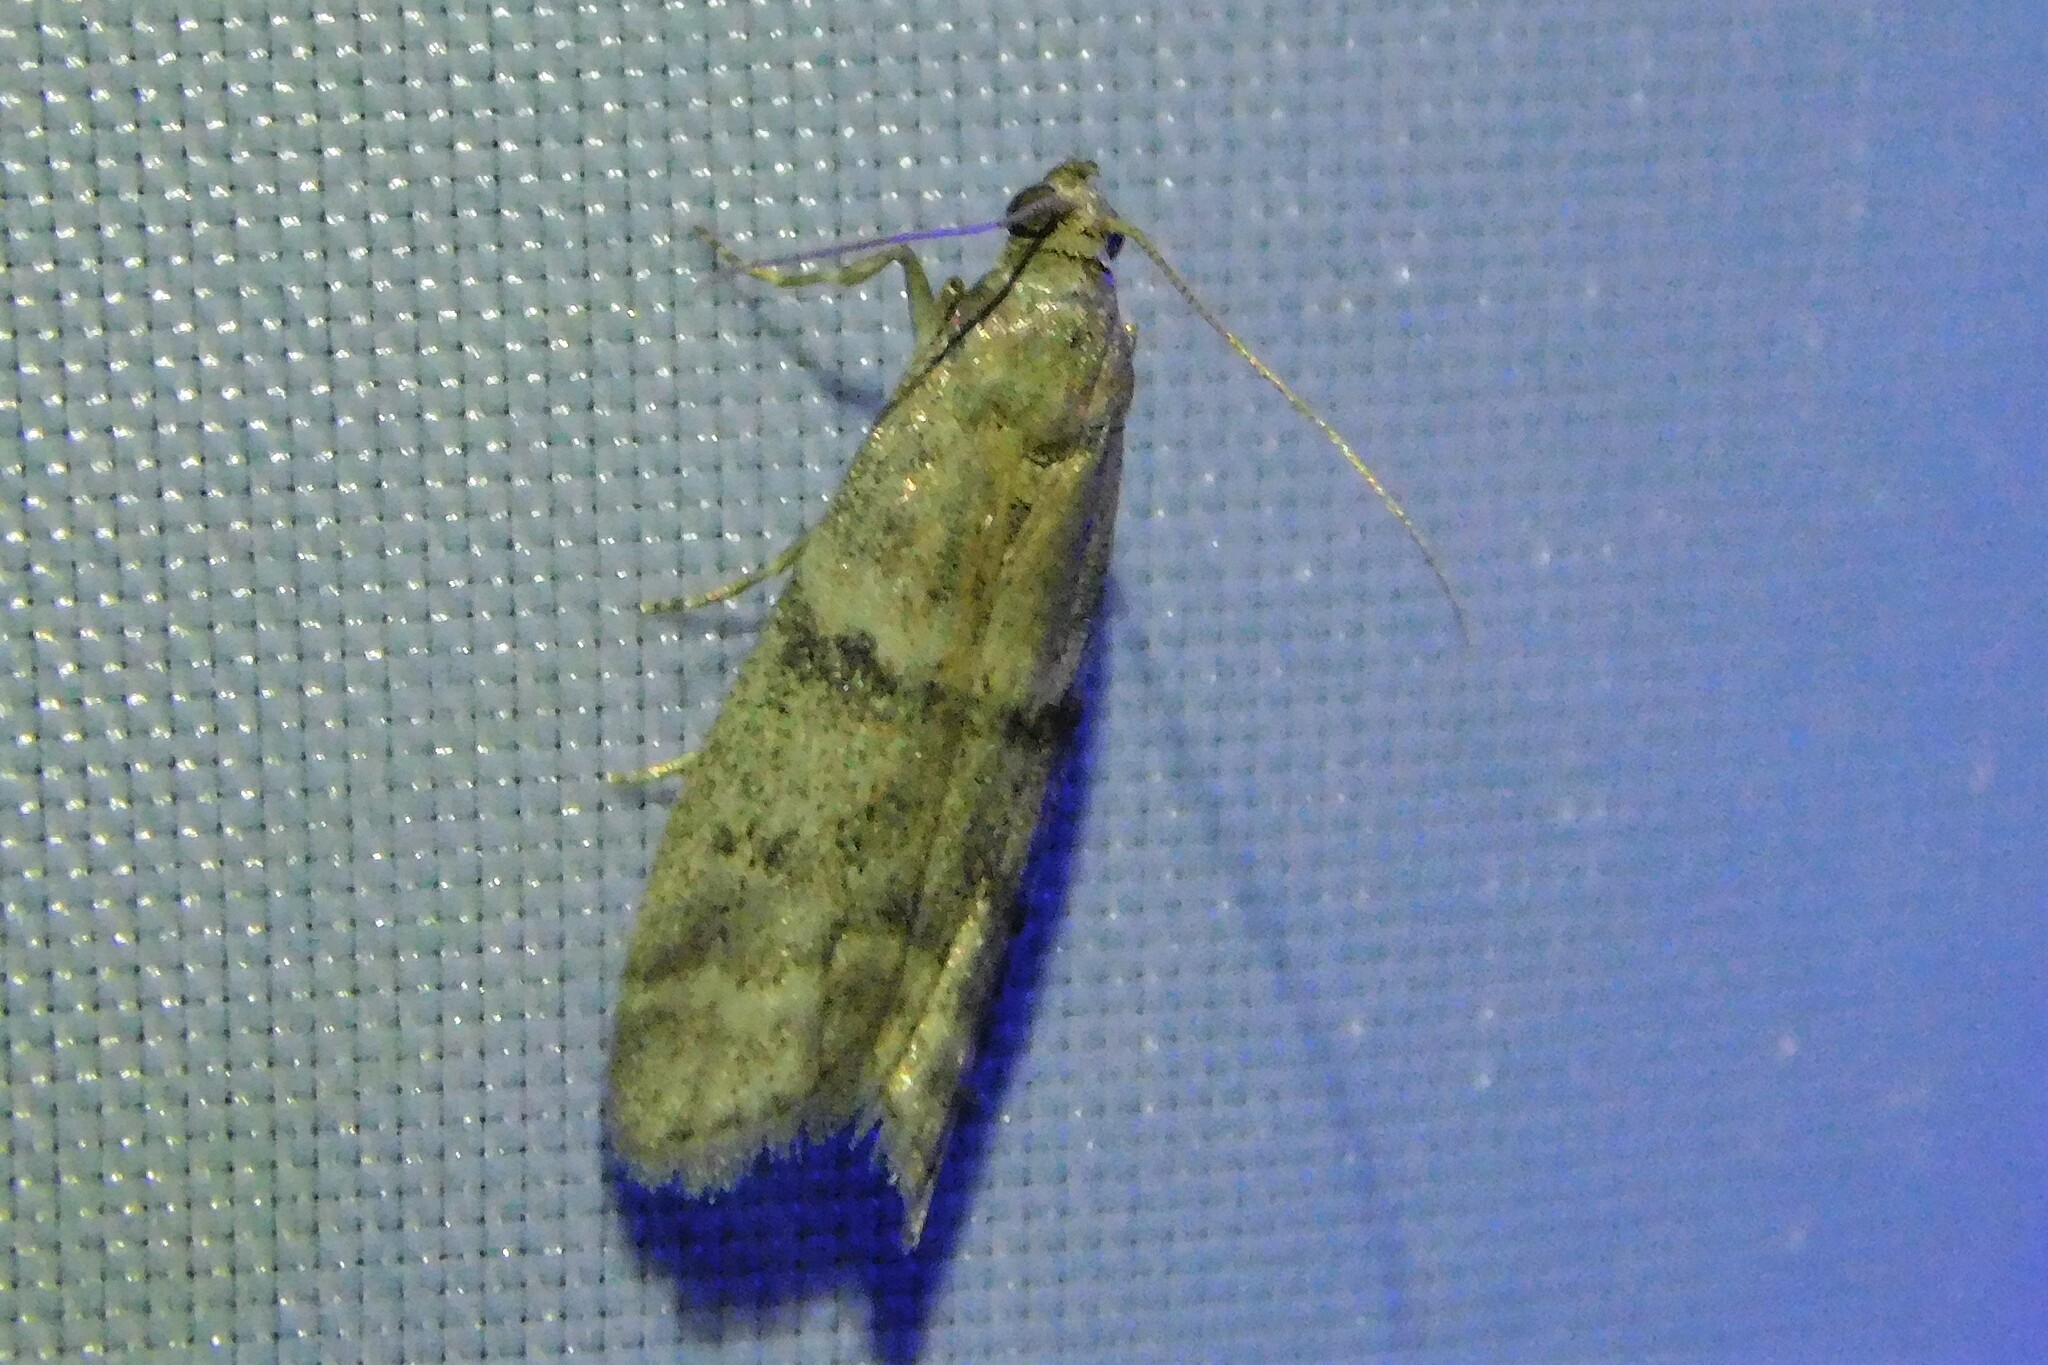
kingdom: Animalia
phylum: Arthropoda
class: Insecta
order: Lepidoptera
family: Pyralidae
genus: Ephestia
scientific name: Ephestia
